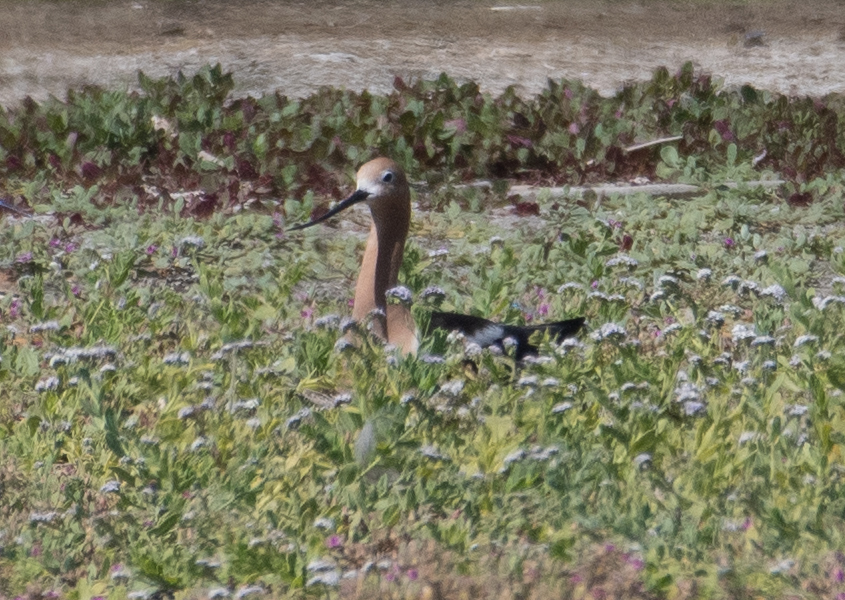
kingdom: Animalia
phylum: Chordata
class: Aves
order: Charadriiformes
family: Recurvirostridae
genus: Recurvirostra
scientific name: Recurvirostra americana
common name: American avocet
